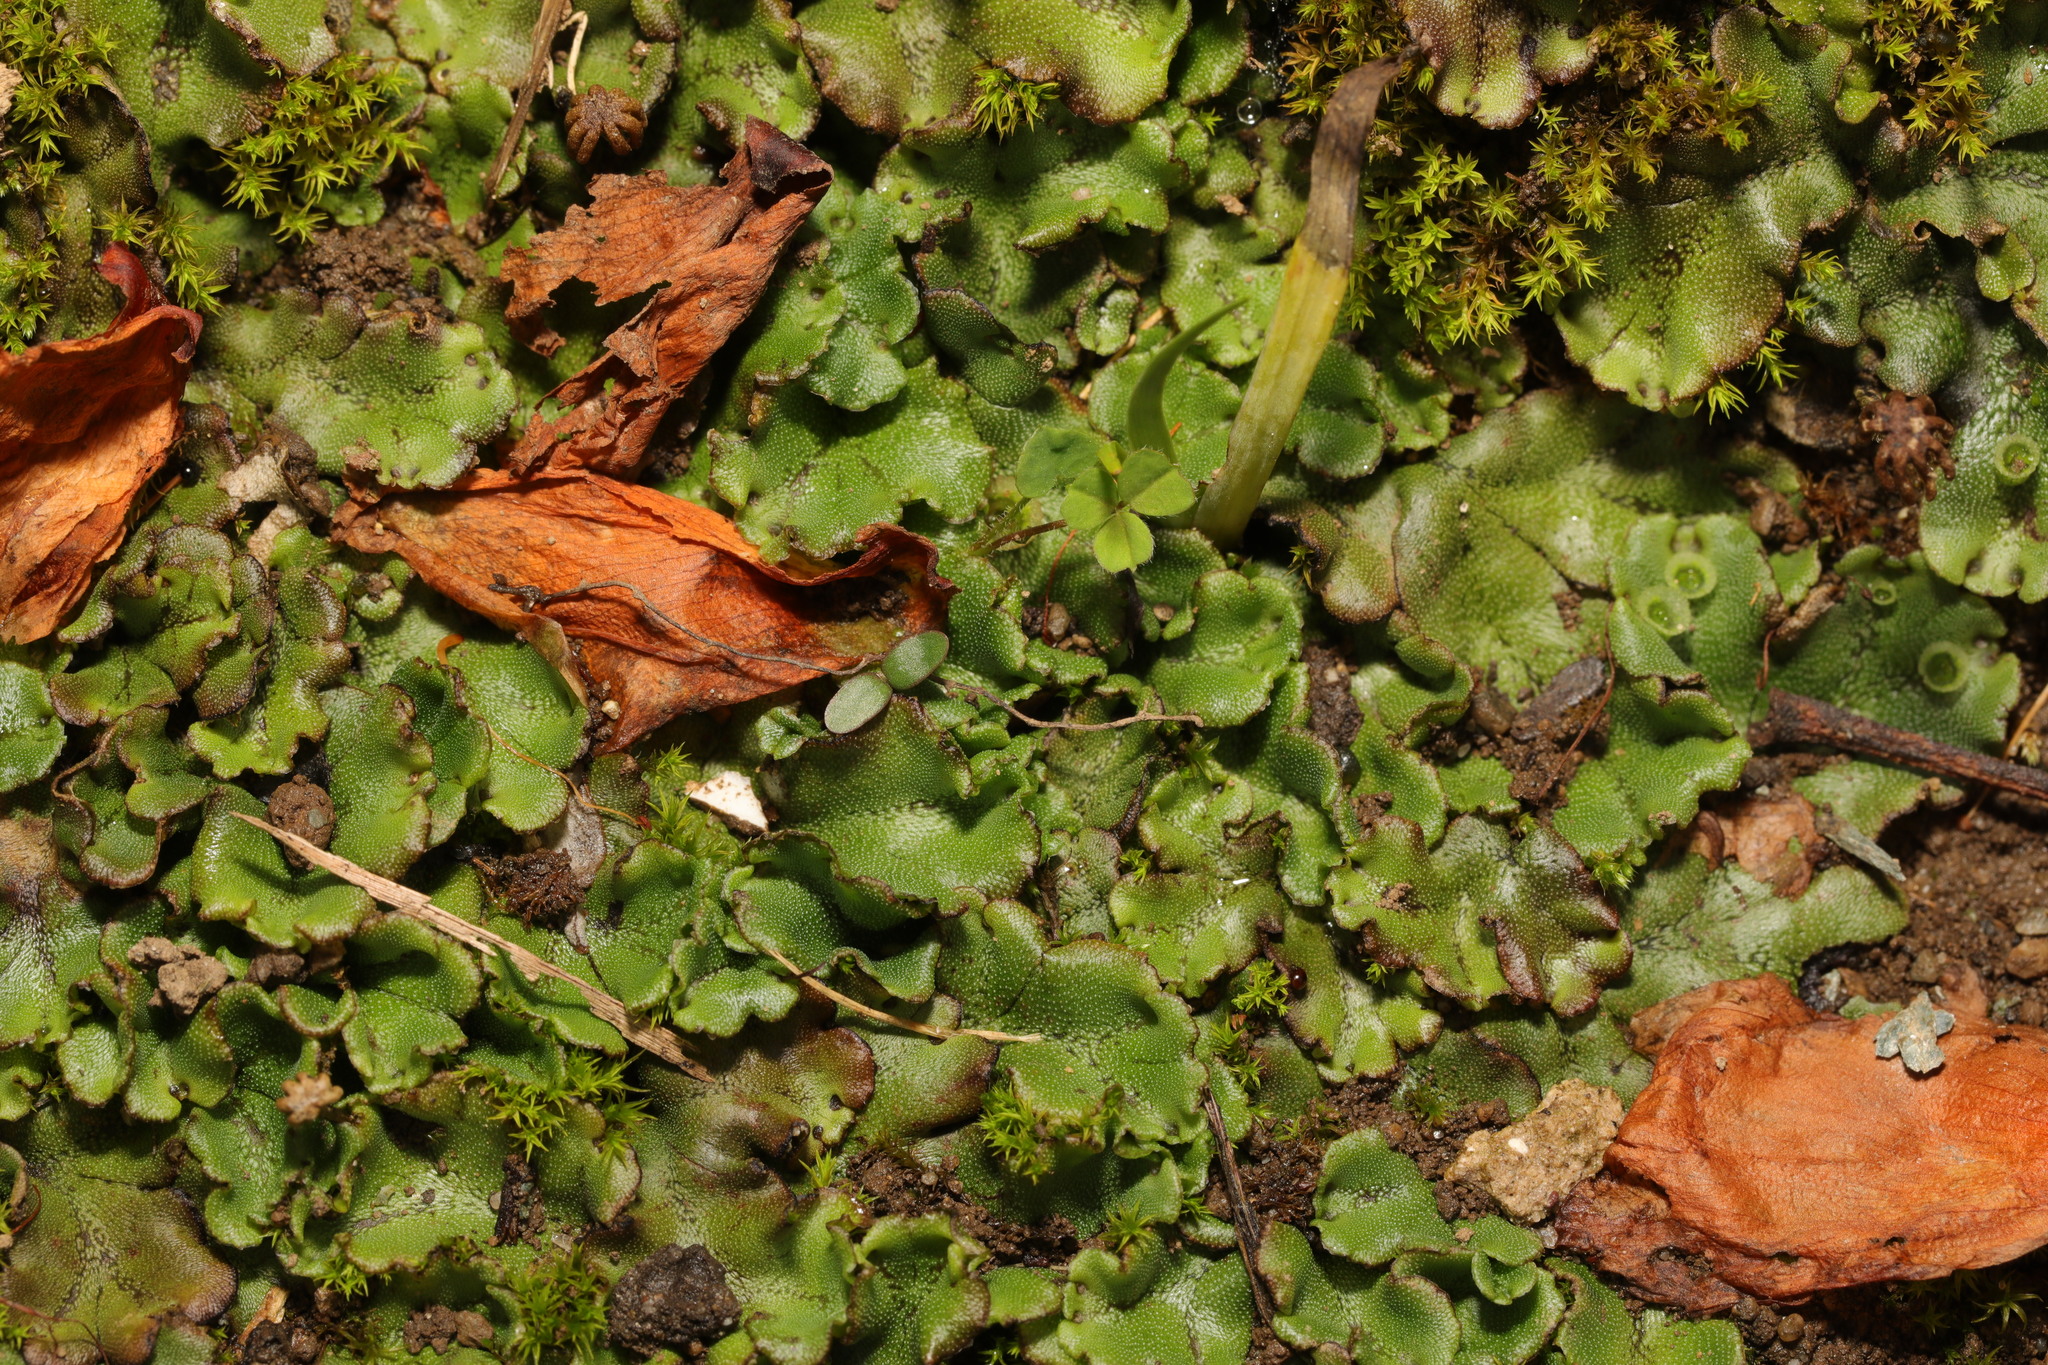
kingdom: Plantae
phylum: Marchantiophyta
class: Marchantiopsida
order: Marchantiales
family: Marchantiaceae
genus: Marchantia
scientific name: Marchantia polymorpha
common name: Common liverwort
